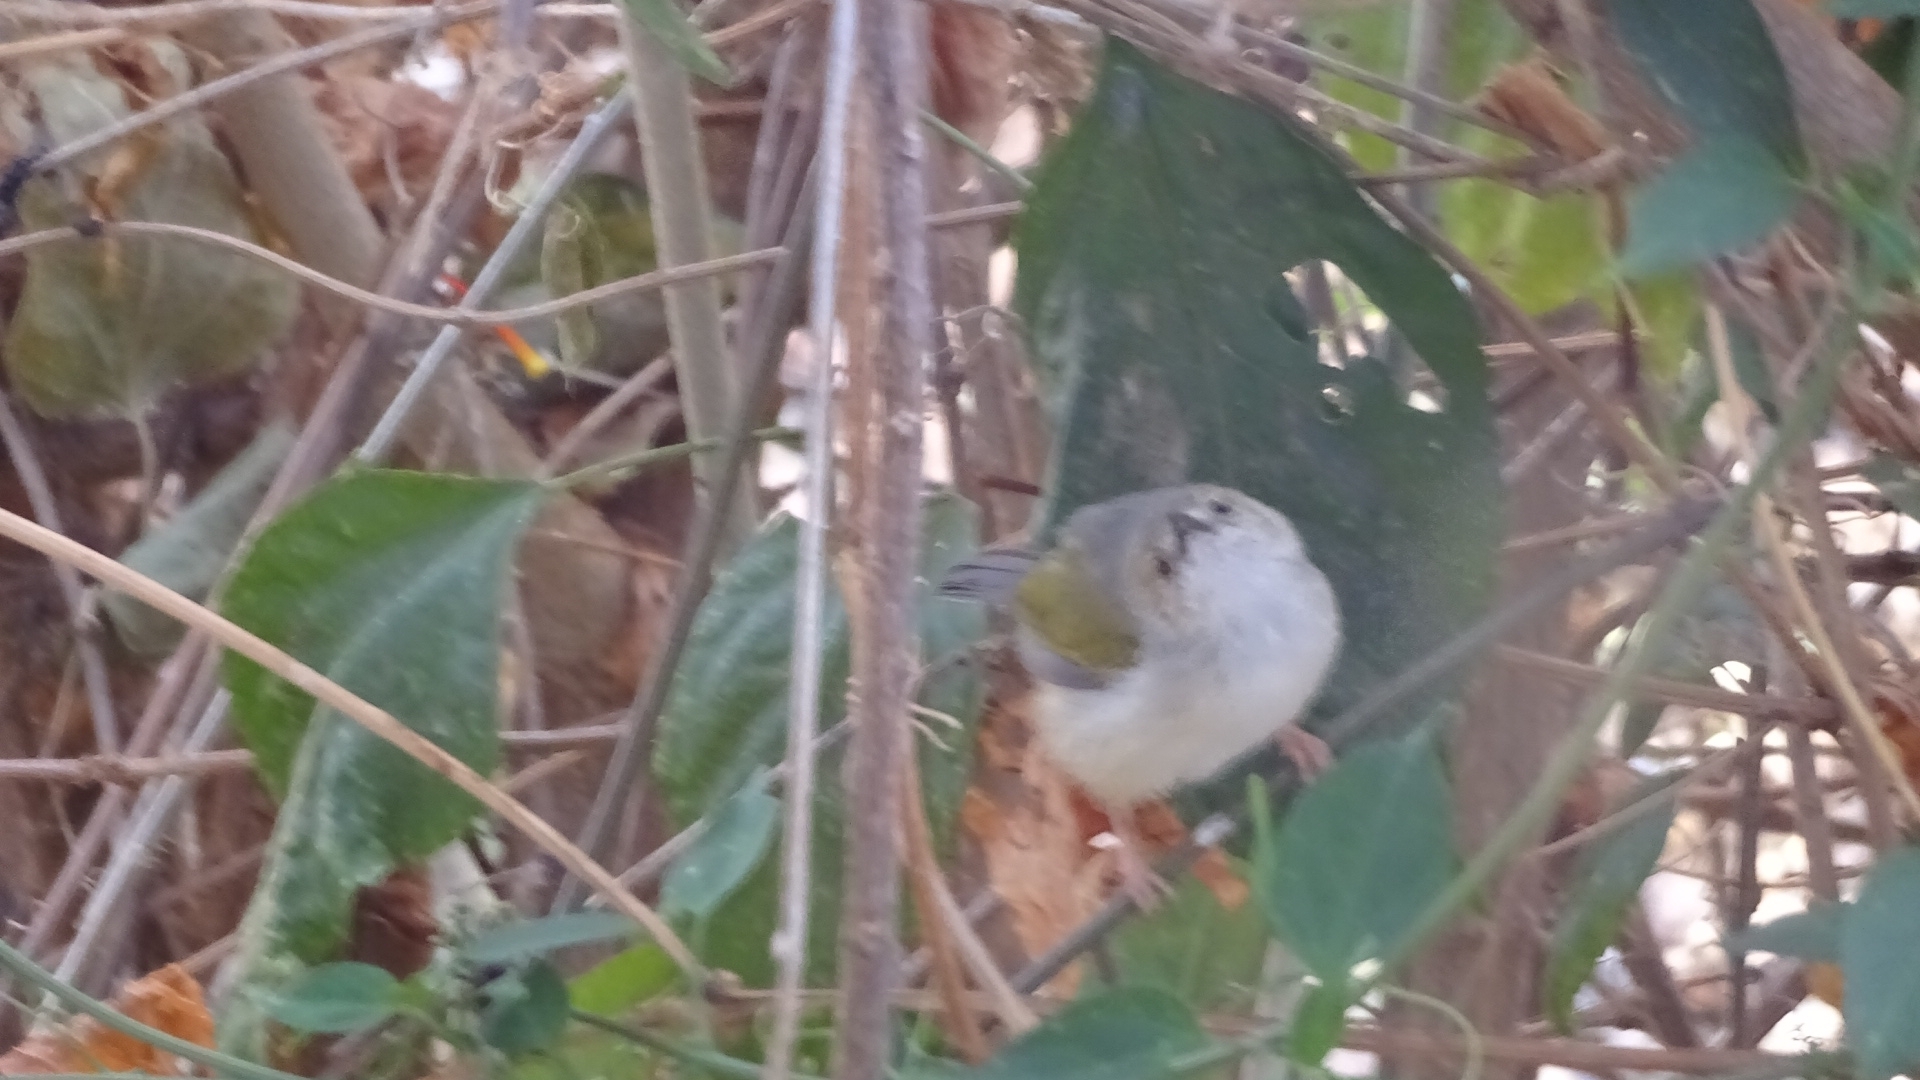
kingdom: Animalia
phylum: Chordata
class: Aves
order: Passeriformes
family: Cisticolidae
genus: Camaroptera
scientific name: Camaroptera brachyura
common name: Green-backed camaroptera
